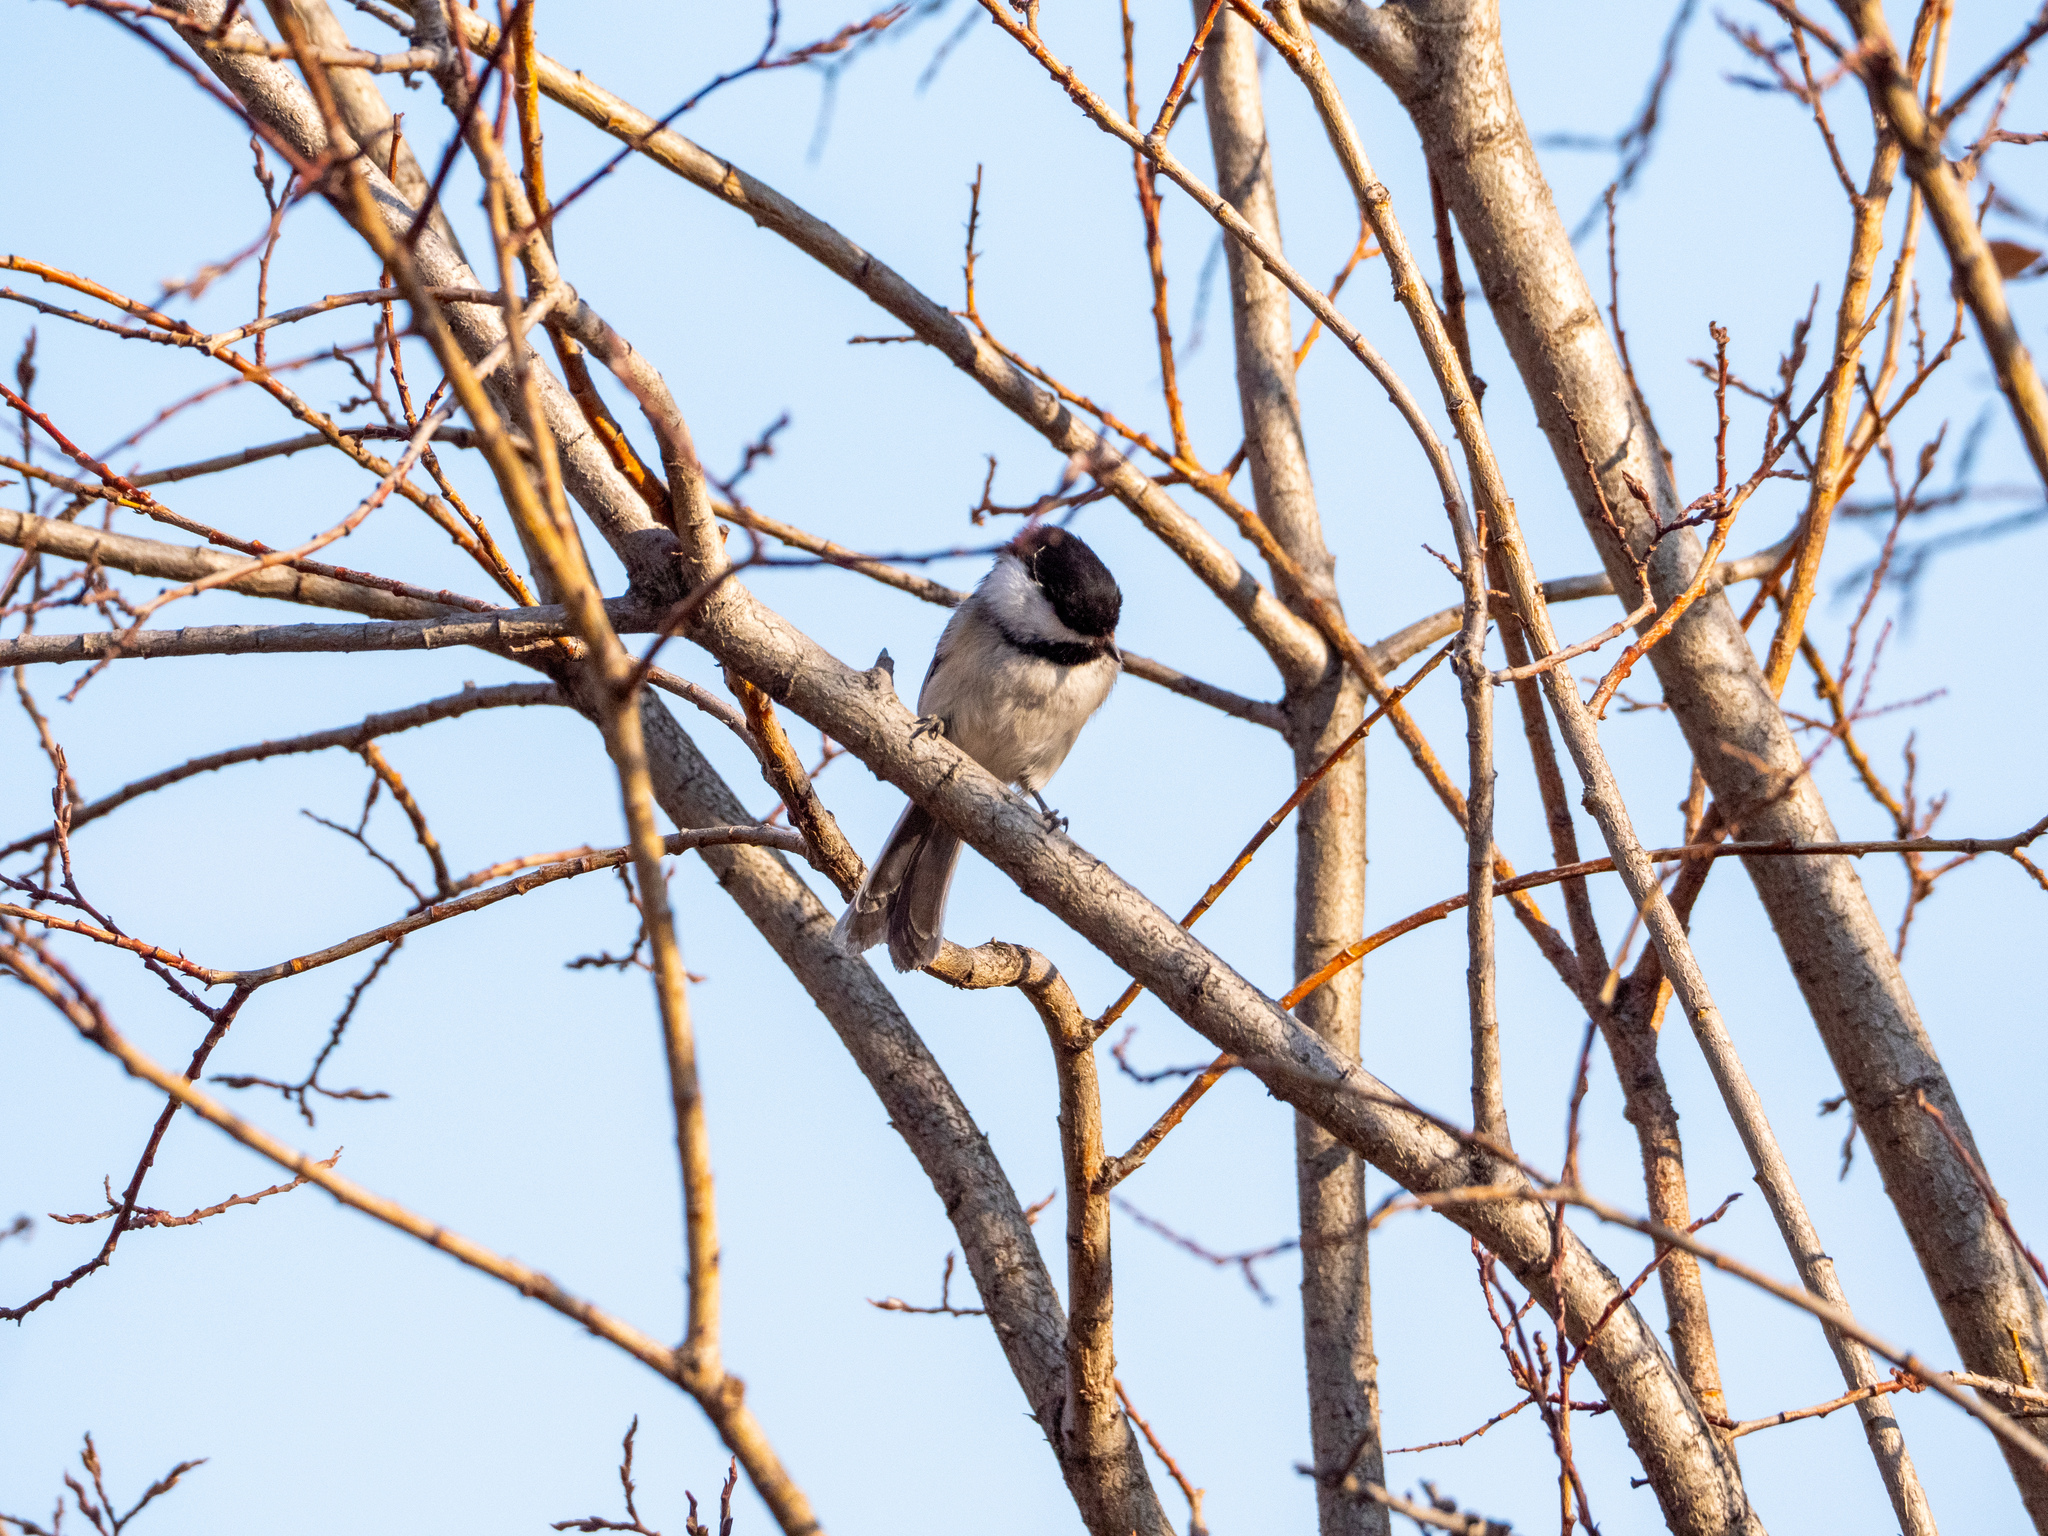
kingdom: Animalia
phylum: Chordata
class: Aves
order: Passeriformes
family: Paridae
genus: Poecile
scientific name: Poecile atricapillus
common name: Black-capped chickadee
